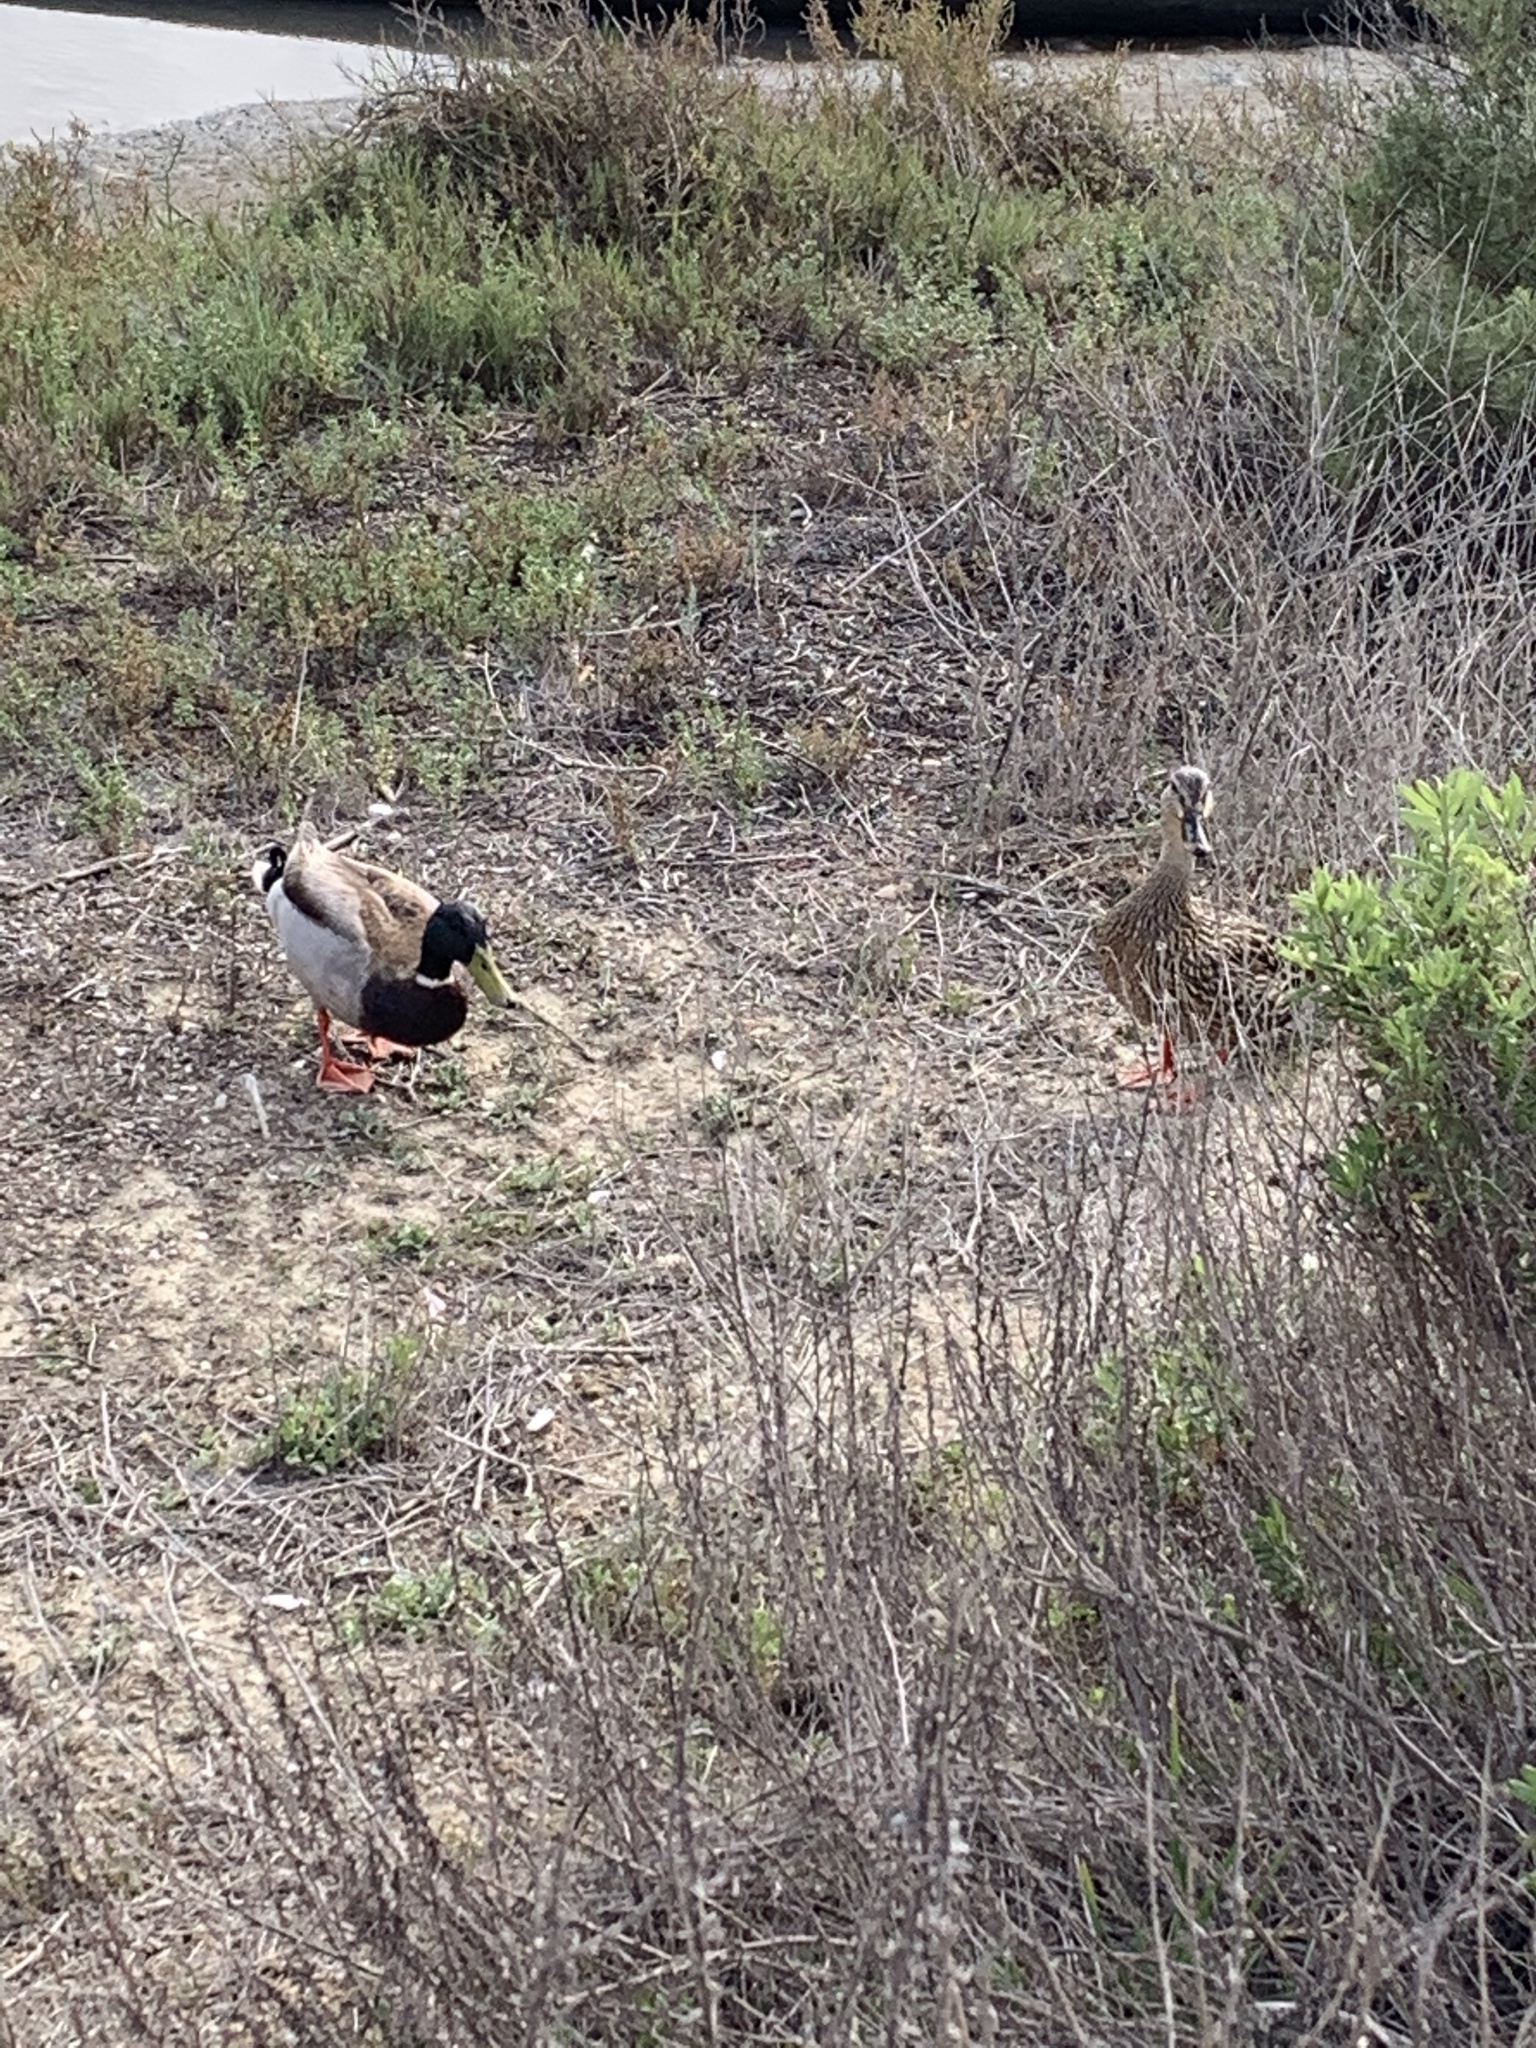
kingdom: Animalia
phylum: Chordata
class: Aves
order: Anseriformes
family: Anatidae
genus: Anas
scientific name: Anas platyrhynchos
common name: Mallard
